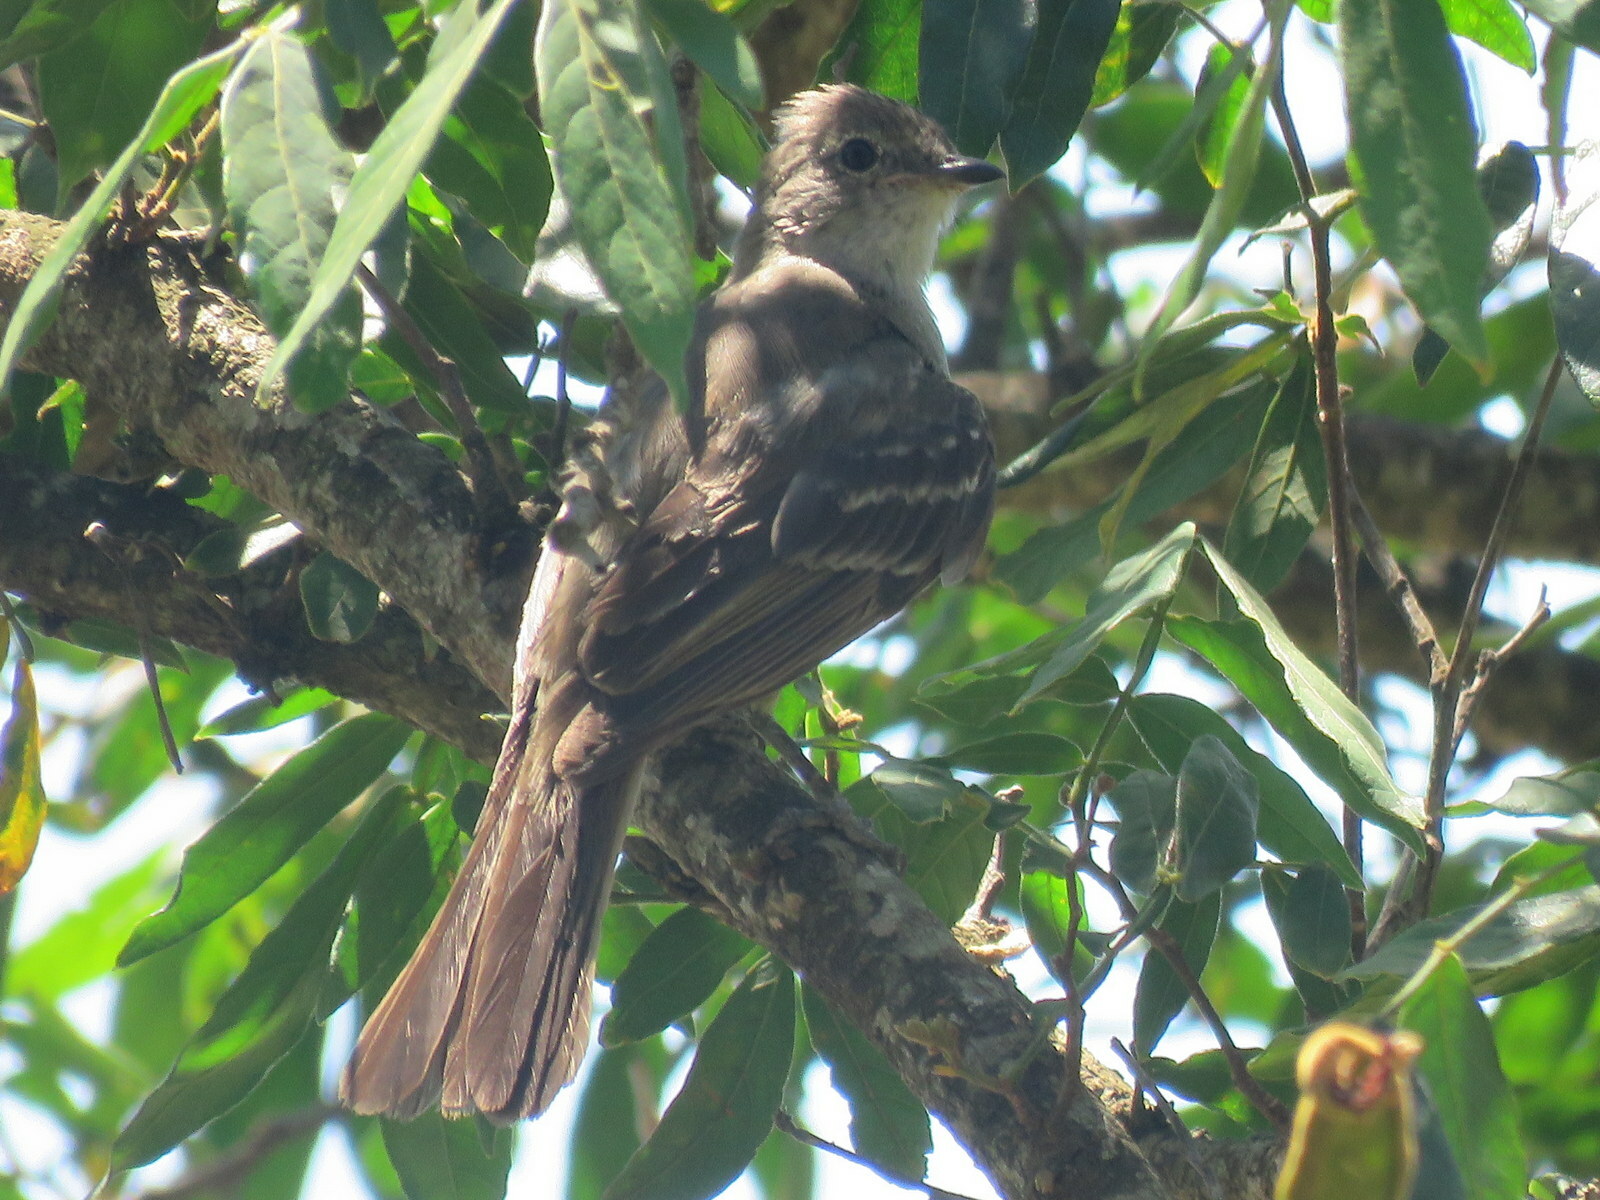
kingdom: Animalia
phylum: Chordata
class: Aves
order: Passeriformes
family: Tyrannidae
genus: Elaenia
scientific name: Elaenia spectabilis
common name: Large elaenia
